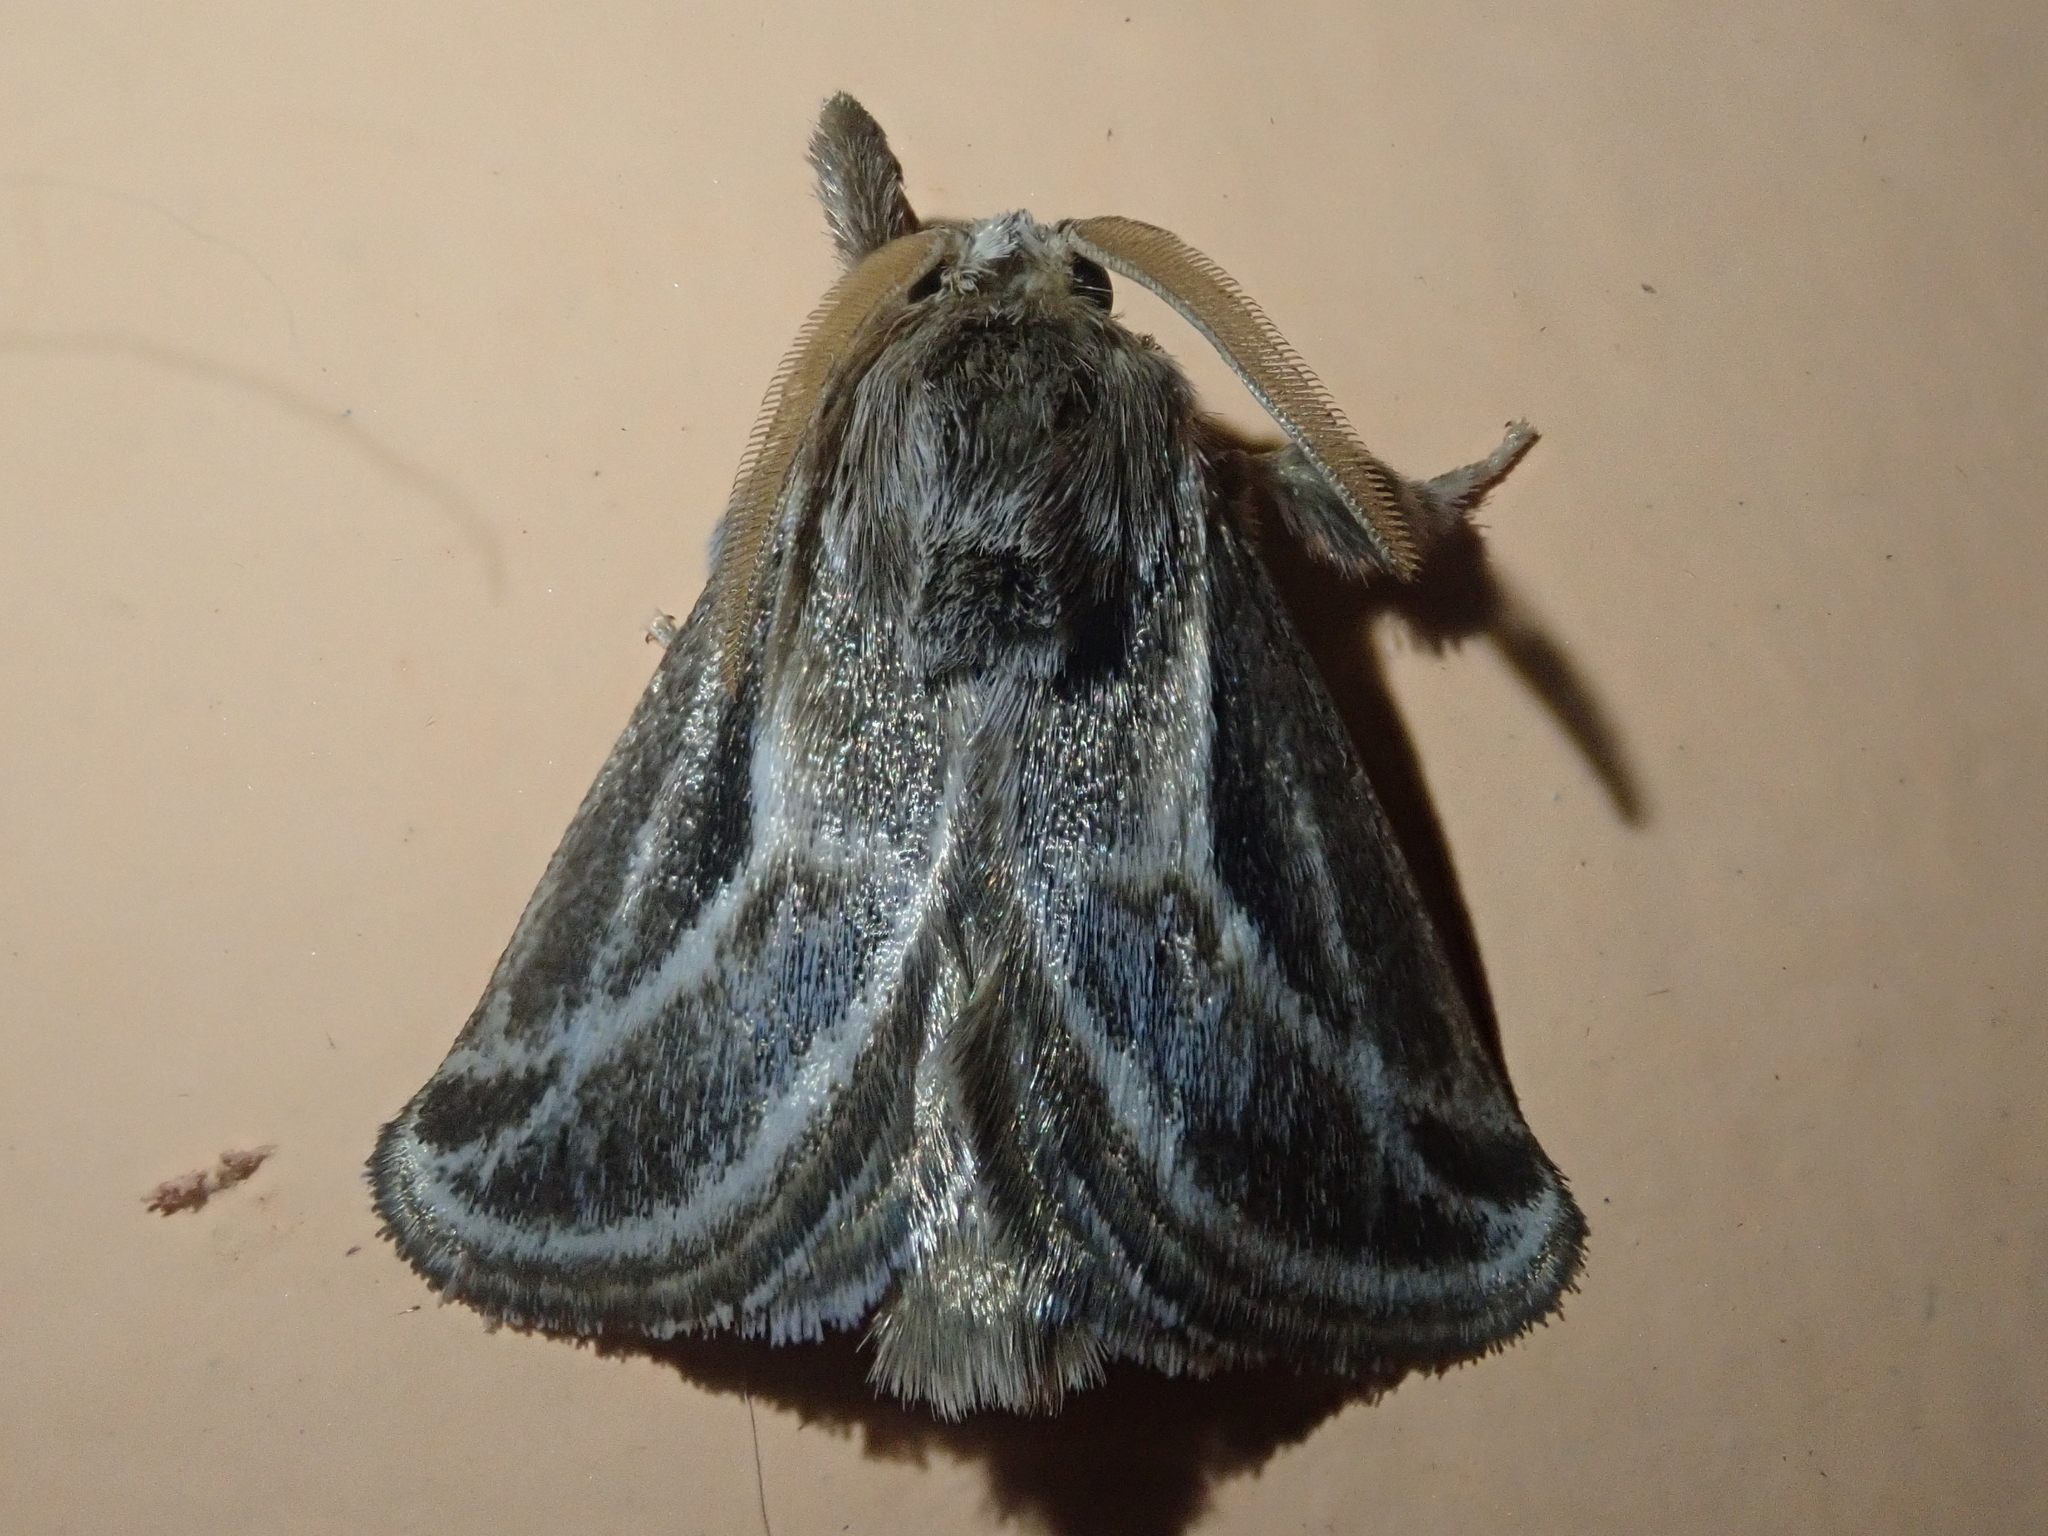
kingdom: Animalia
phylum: Arthropoda
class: Insecta
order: Lepidoptera
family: Limacodidae
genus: Perola
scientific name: Perola brumalis
